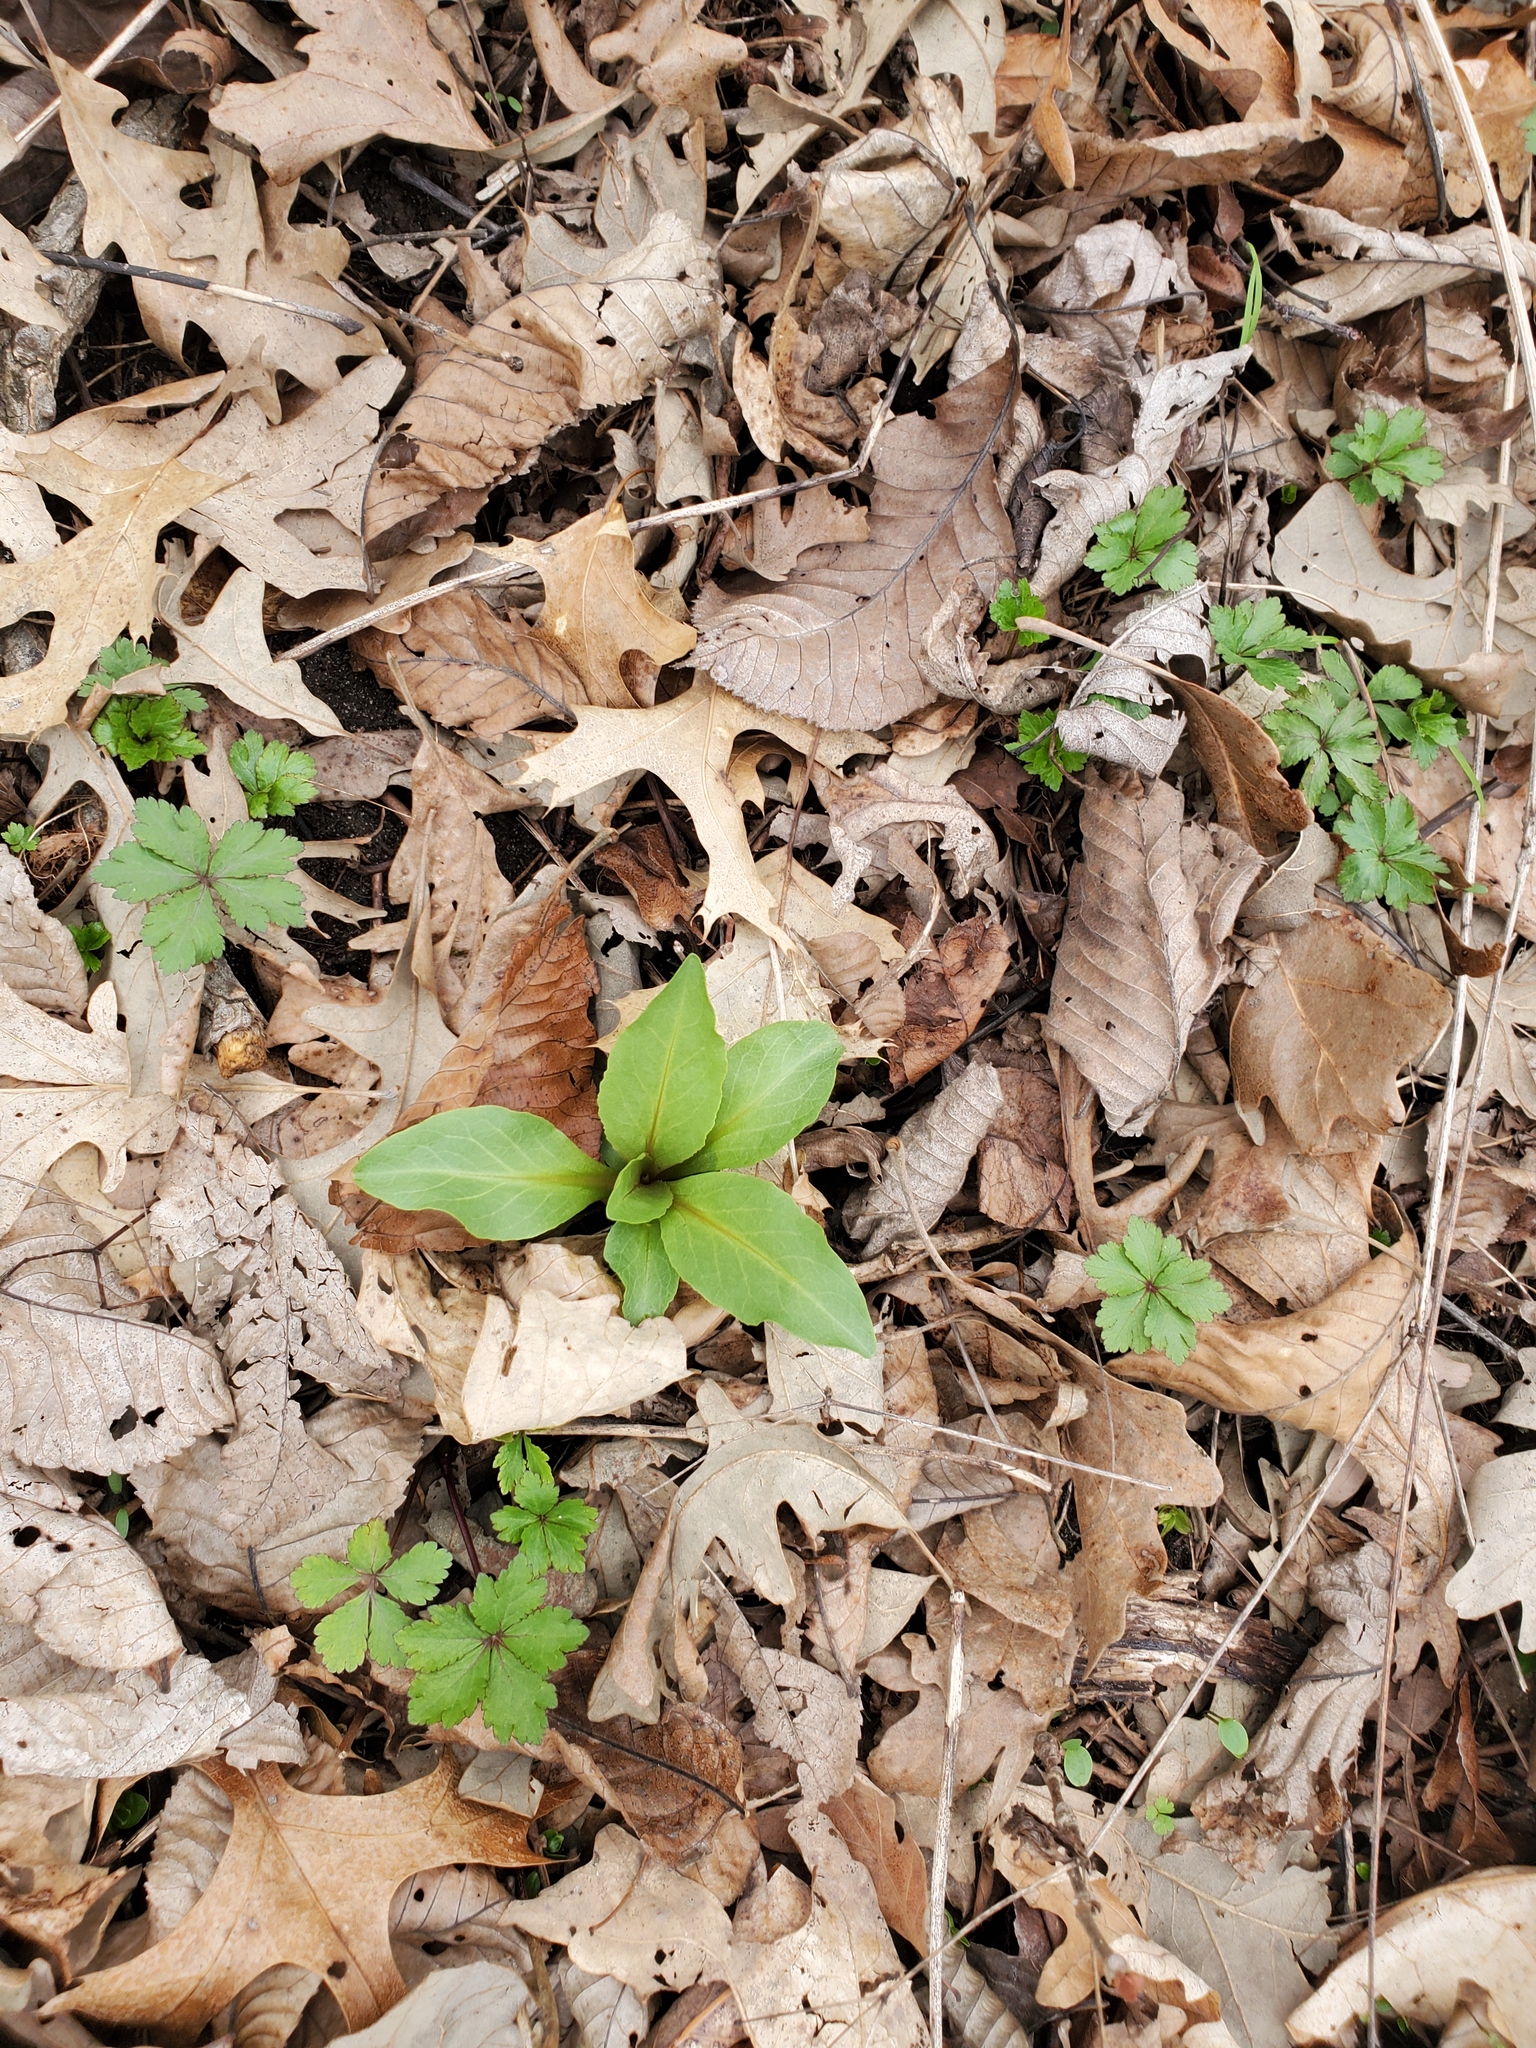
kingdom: Plantae
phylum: Tracheophyta
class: Magnoliopsida
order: Ericales
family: Primulaceae
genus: Dodecatheon
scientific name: Dodecatheon meadia
